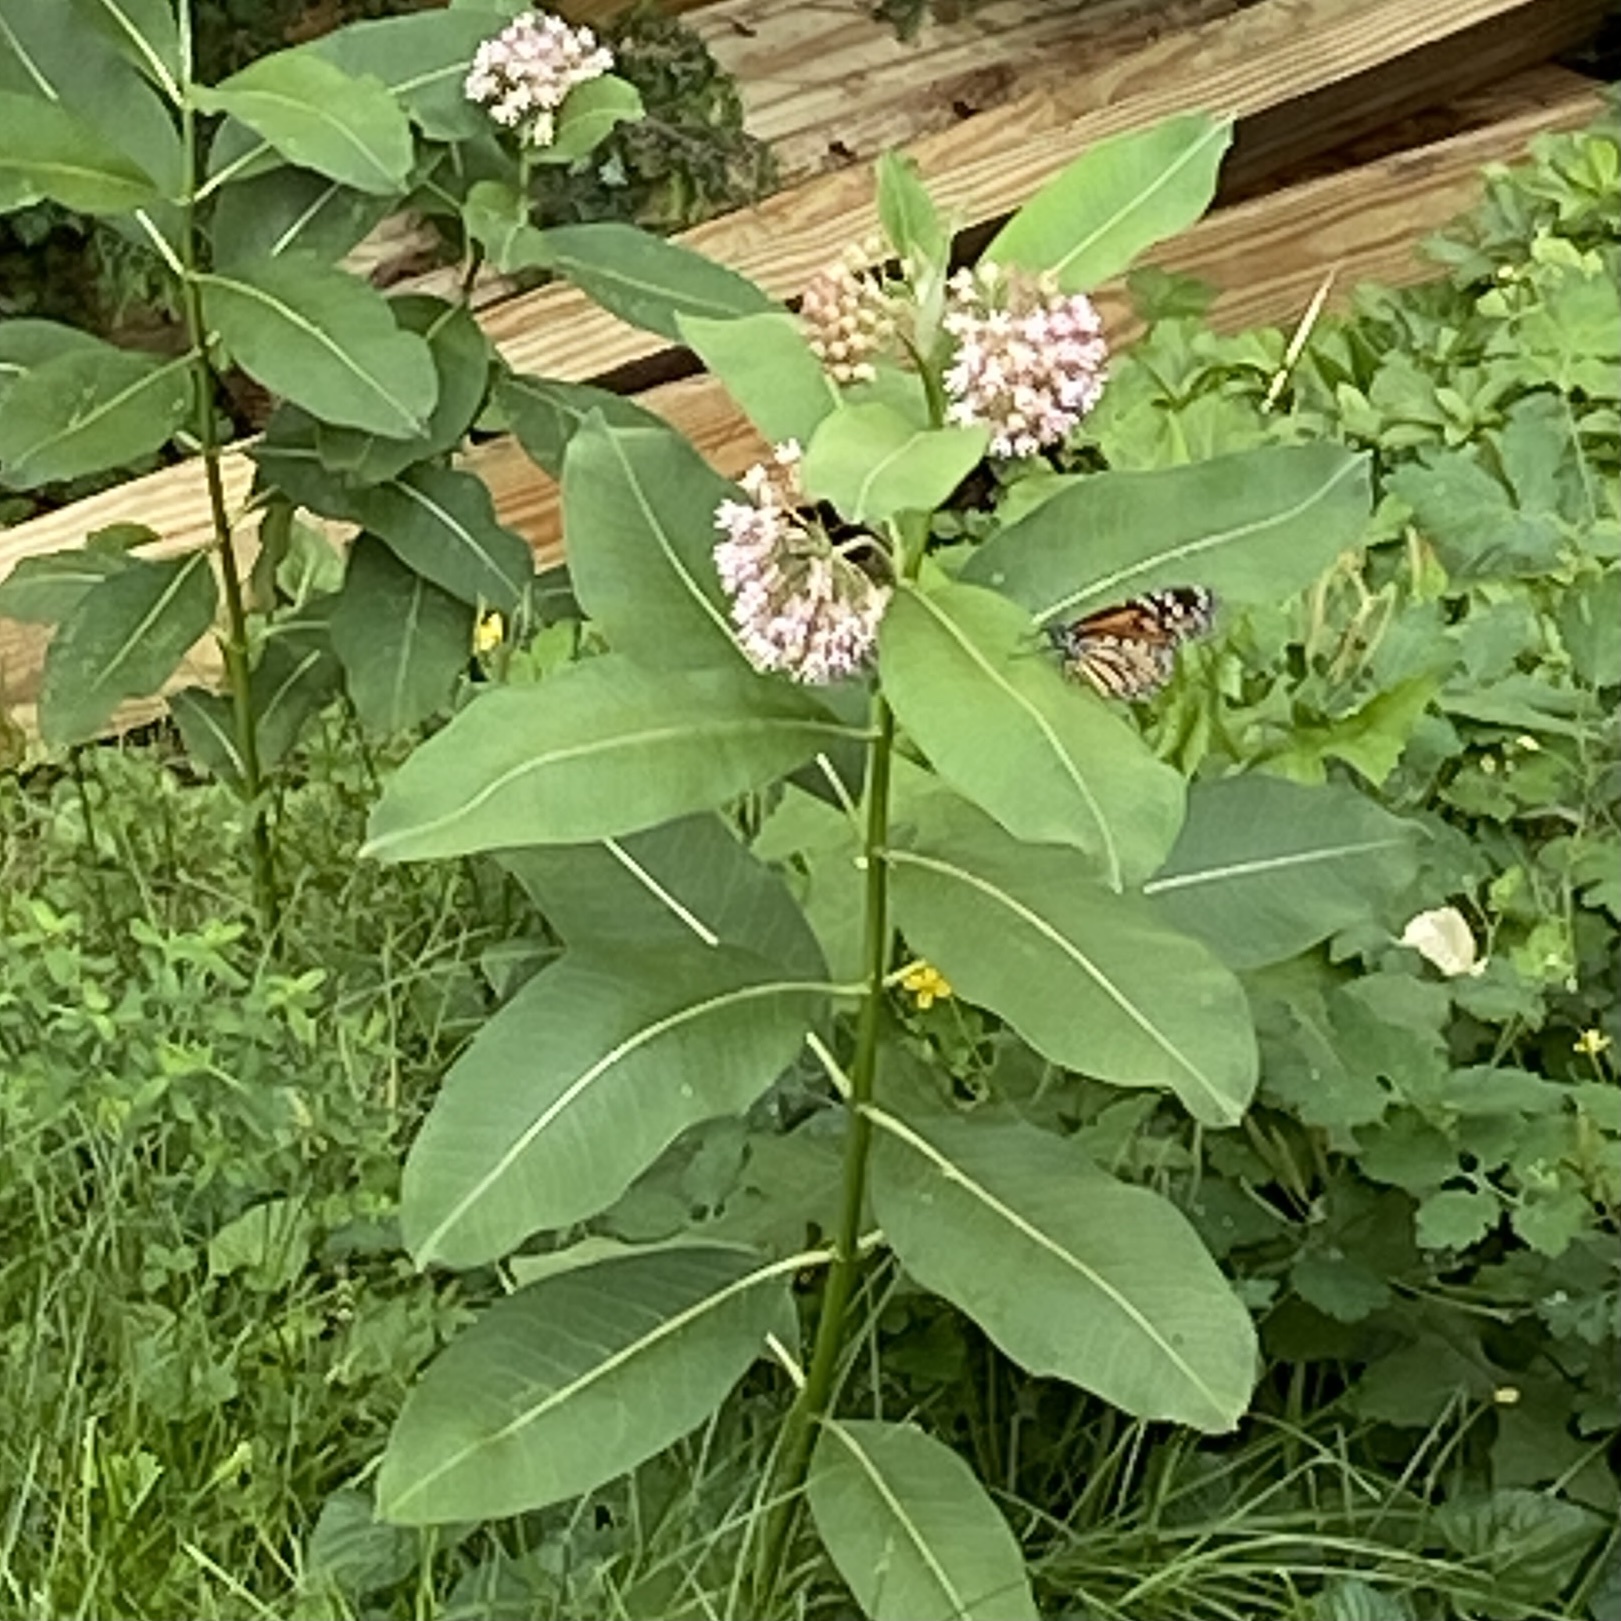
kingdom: Animalia
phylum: Arthropoda
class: Insecta
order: Lepidoptera
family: Nymphalidae
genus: Danaus
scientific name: Danaus plexippus
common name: Monarch
